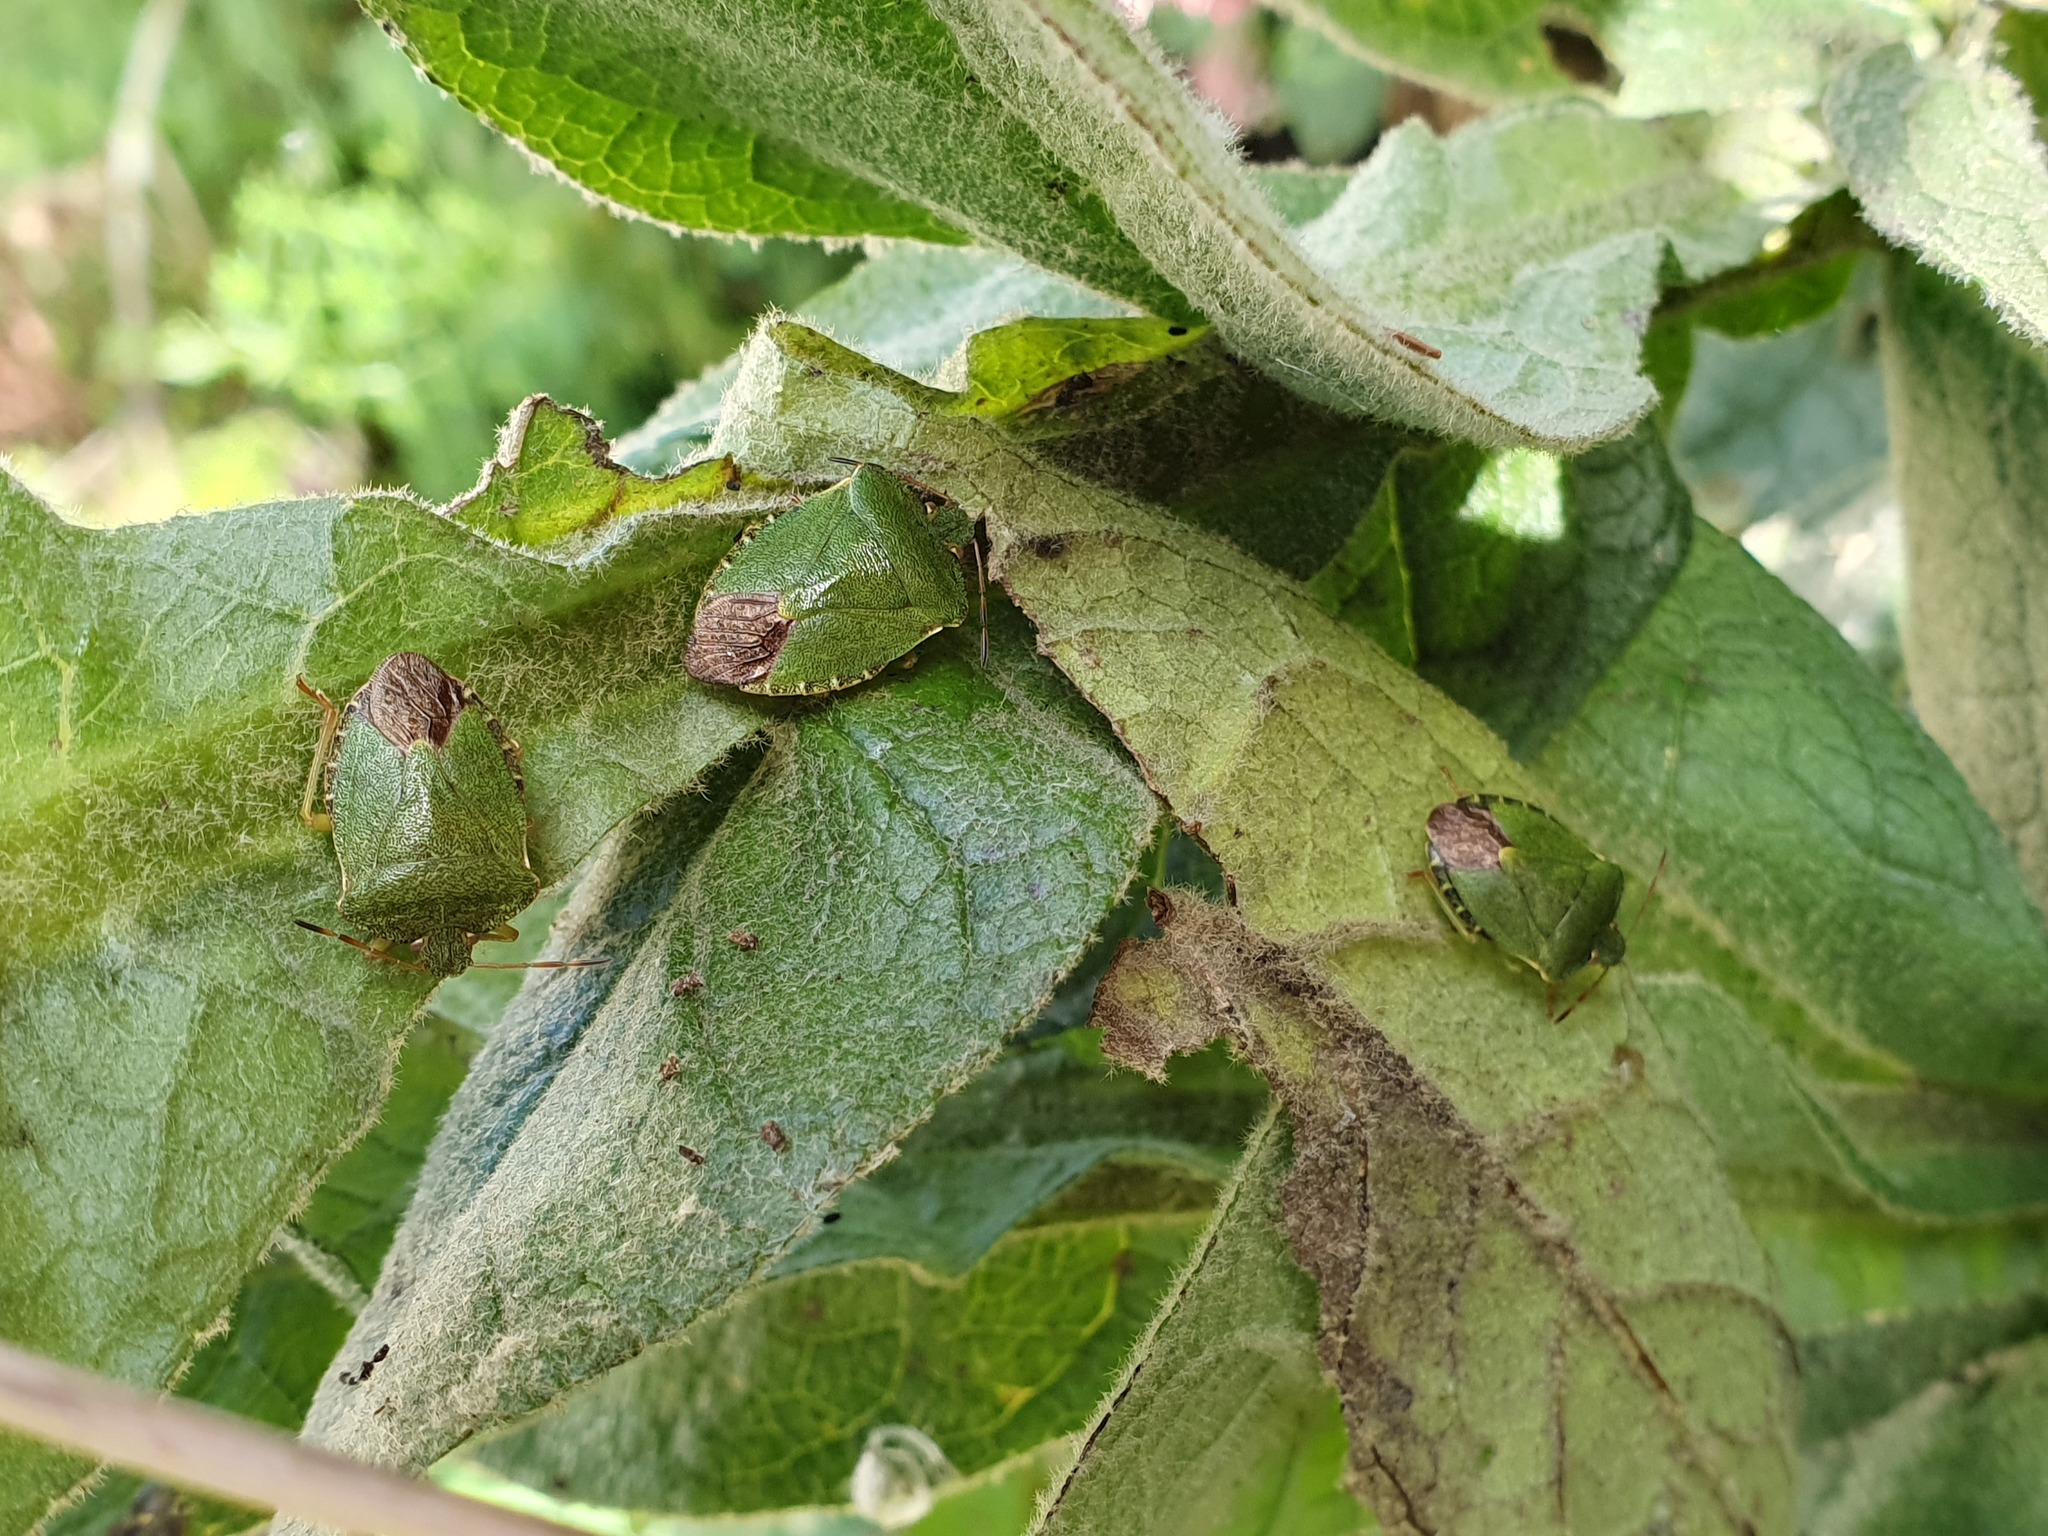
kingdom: Animalia
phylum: Arthropoda
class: Insecta
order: Hemiptera
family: Pentatomidae
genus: Palomena
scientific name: Palomena prasina
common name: Green shieldbug
